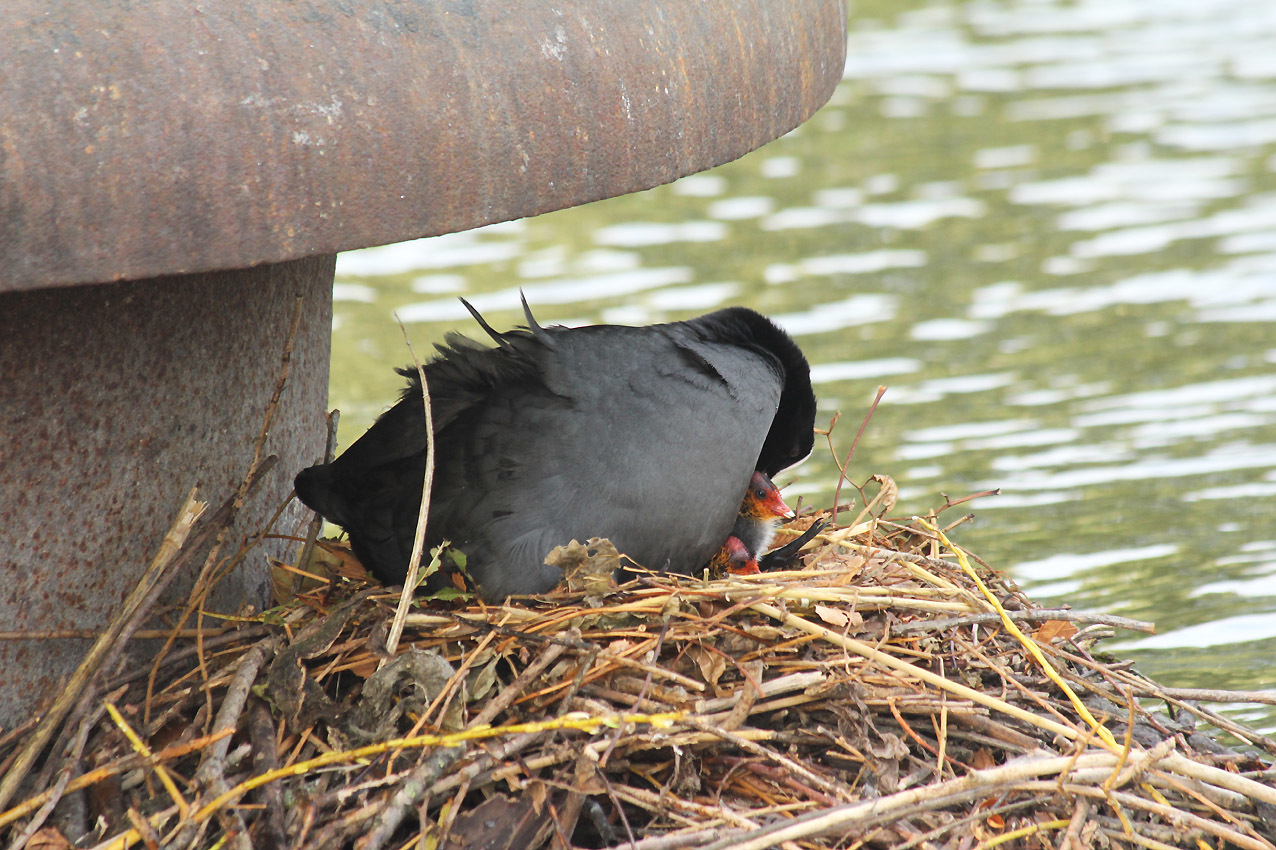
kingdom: Animalia
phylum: Chordata
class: Aves
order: Gruiformes
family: Rallidae
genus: Fulica
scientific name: Fulica atra
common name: Eurasian coot
